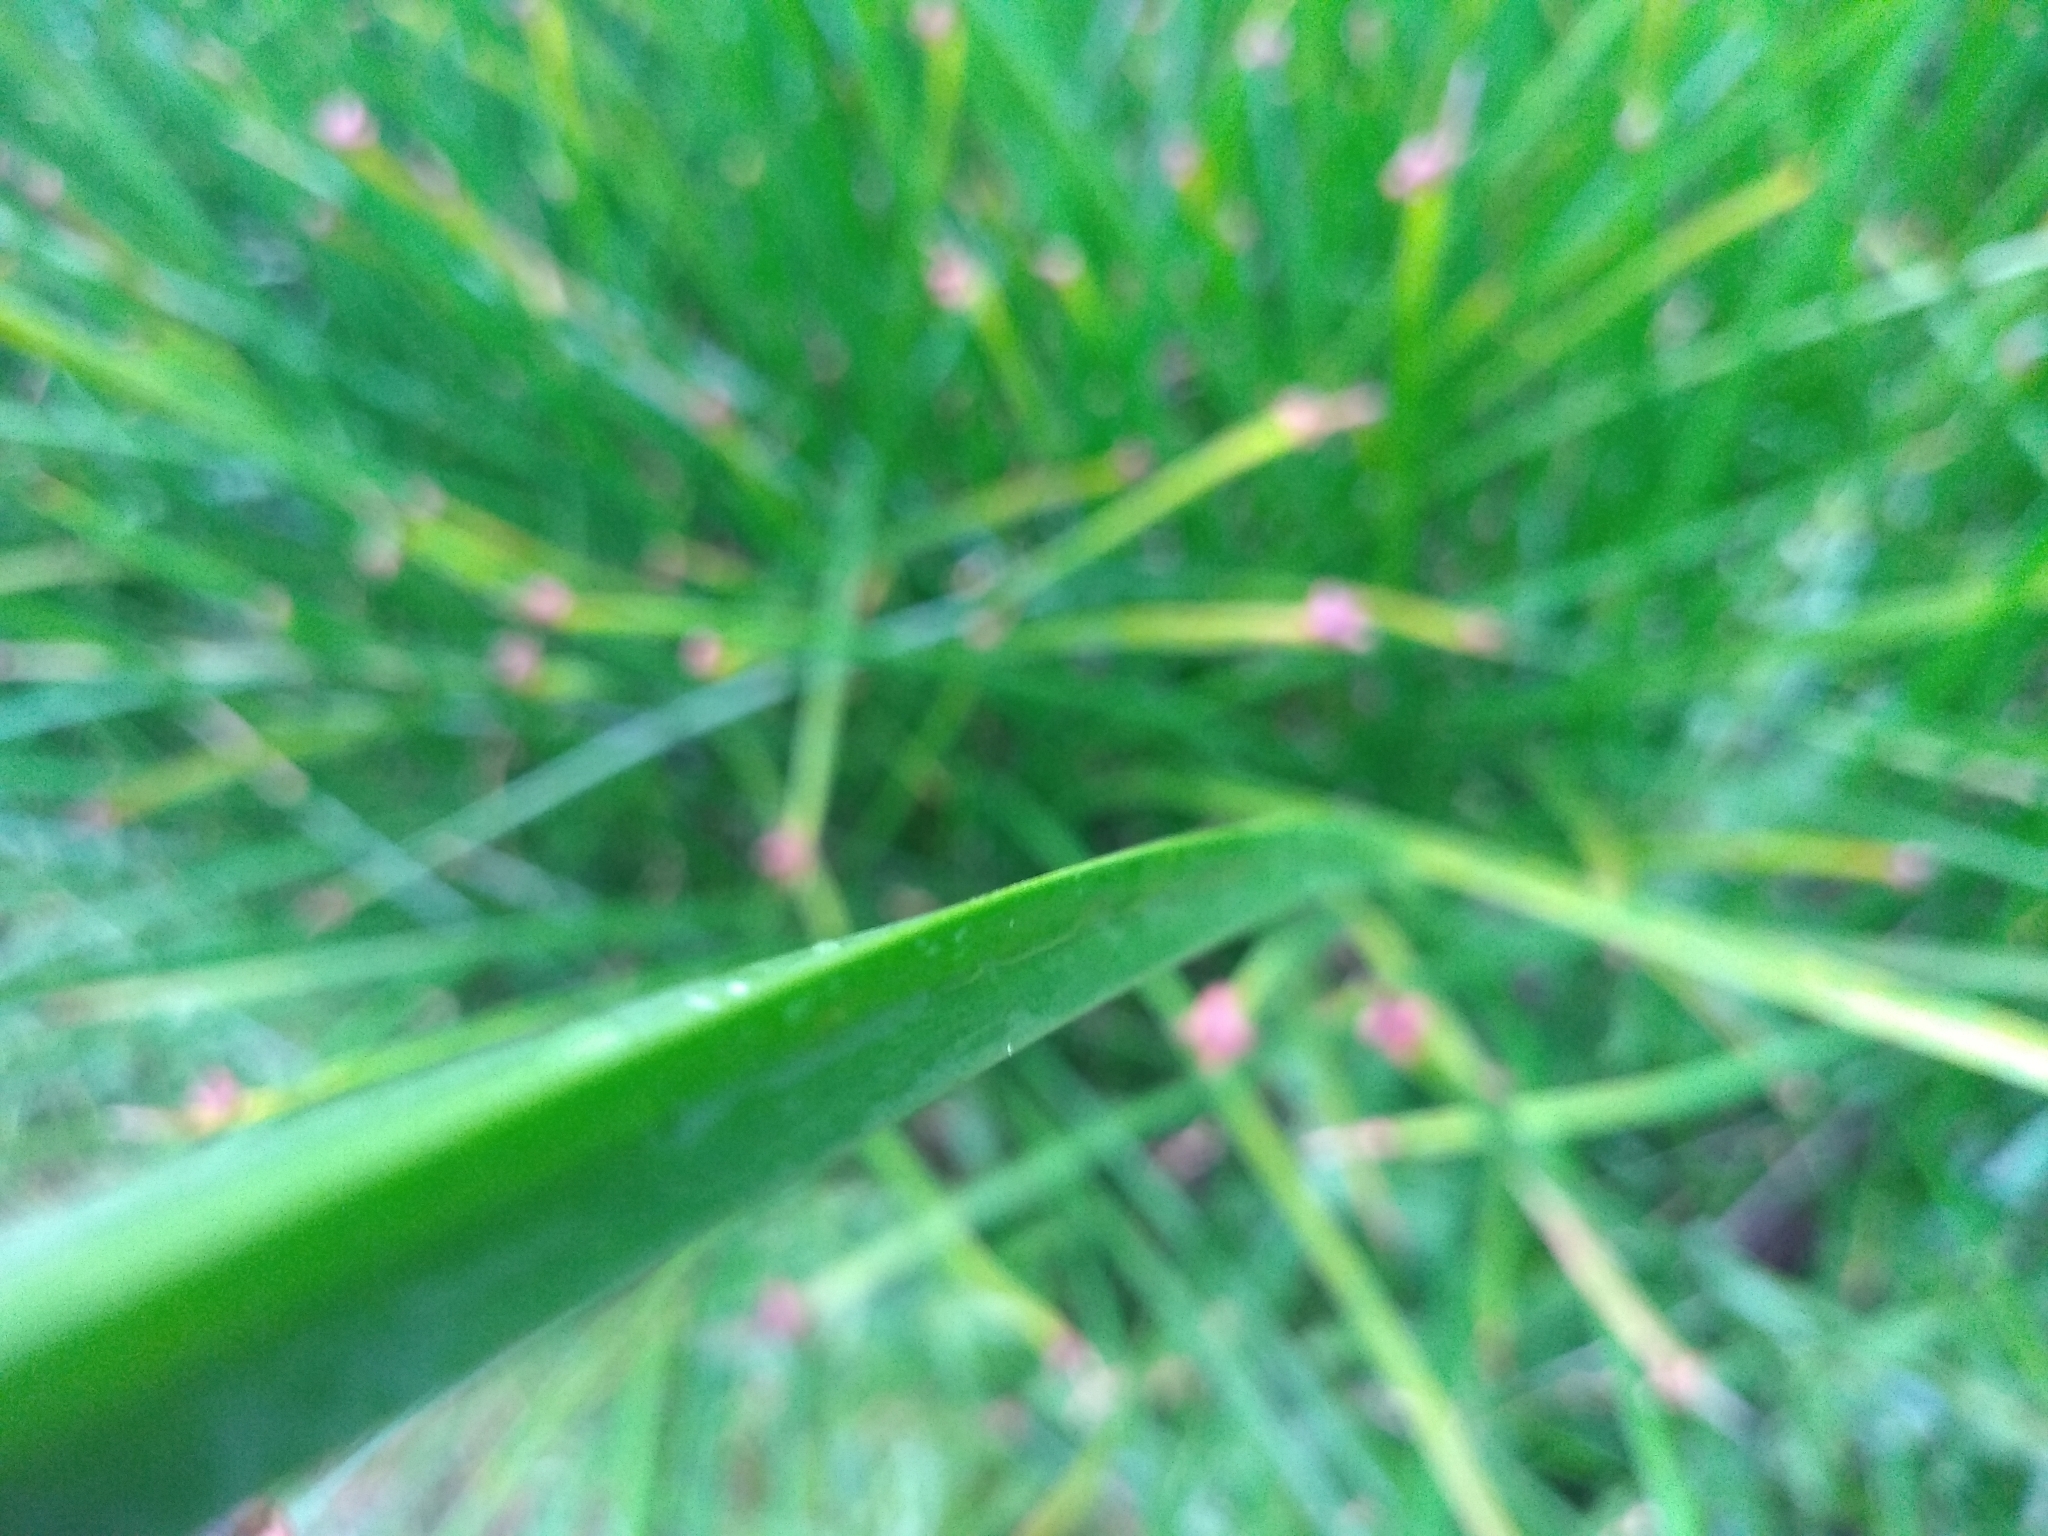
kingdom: Plantae
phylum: Tracheophyta
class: Liliopsida
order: Poales
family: Cyperaceae
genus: Schoenoplectus
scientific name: Schoenoplectus americanus
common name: American three-square bulrush
